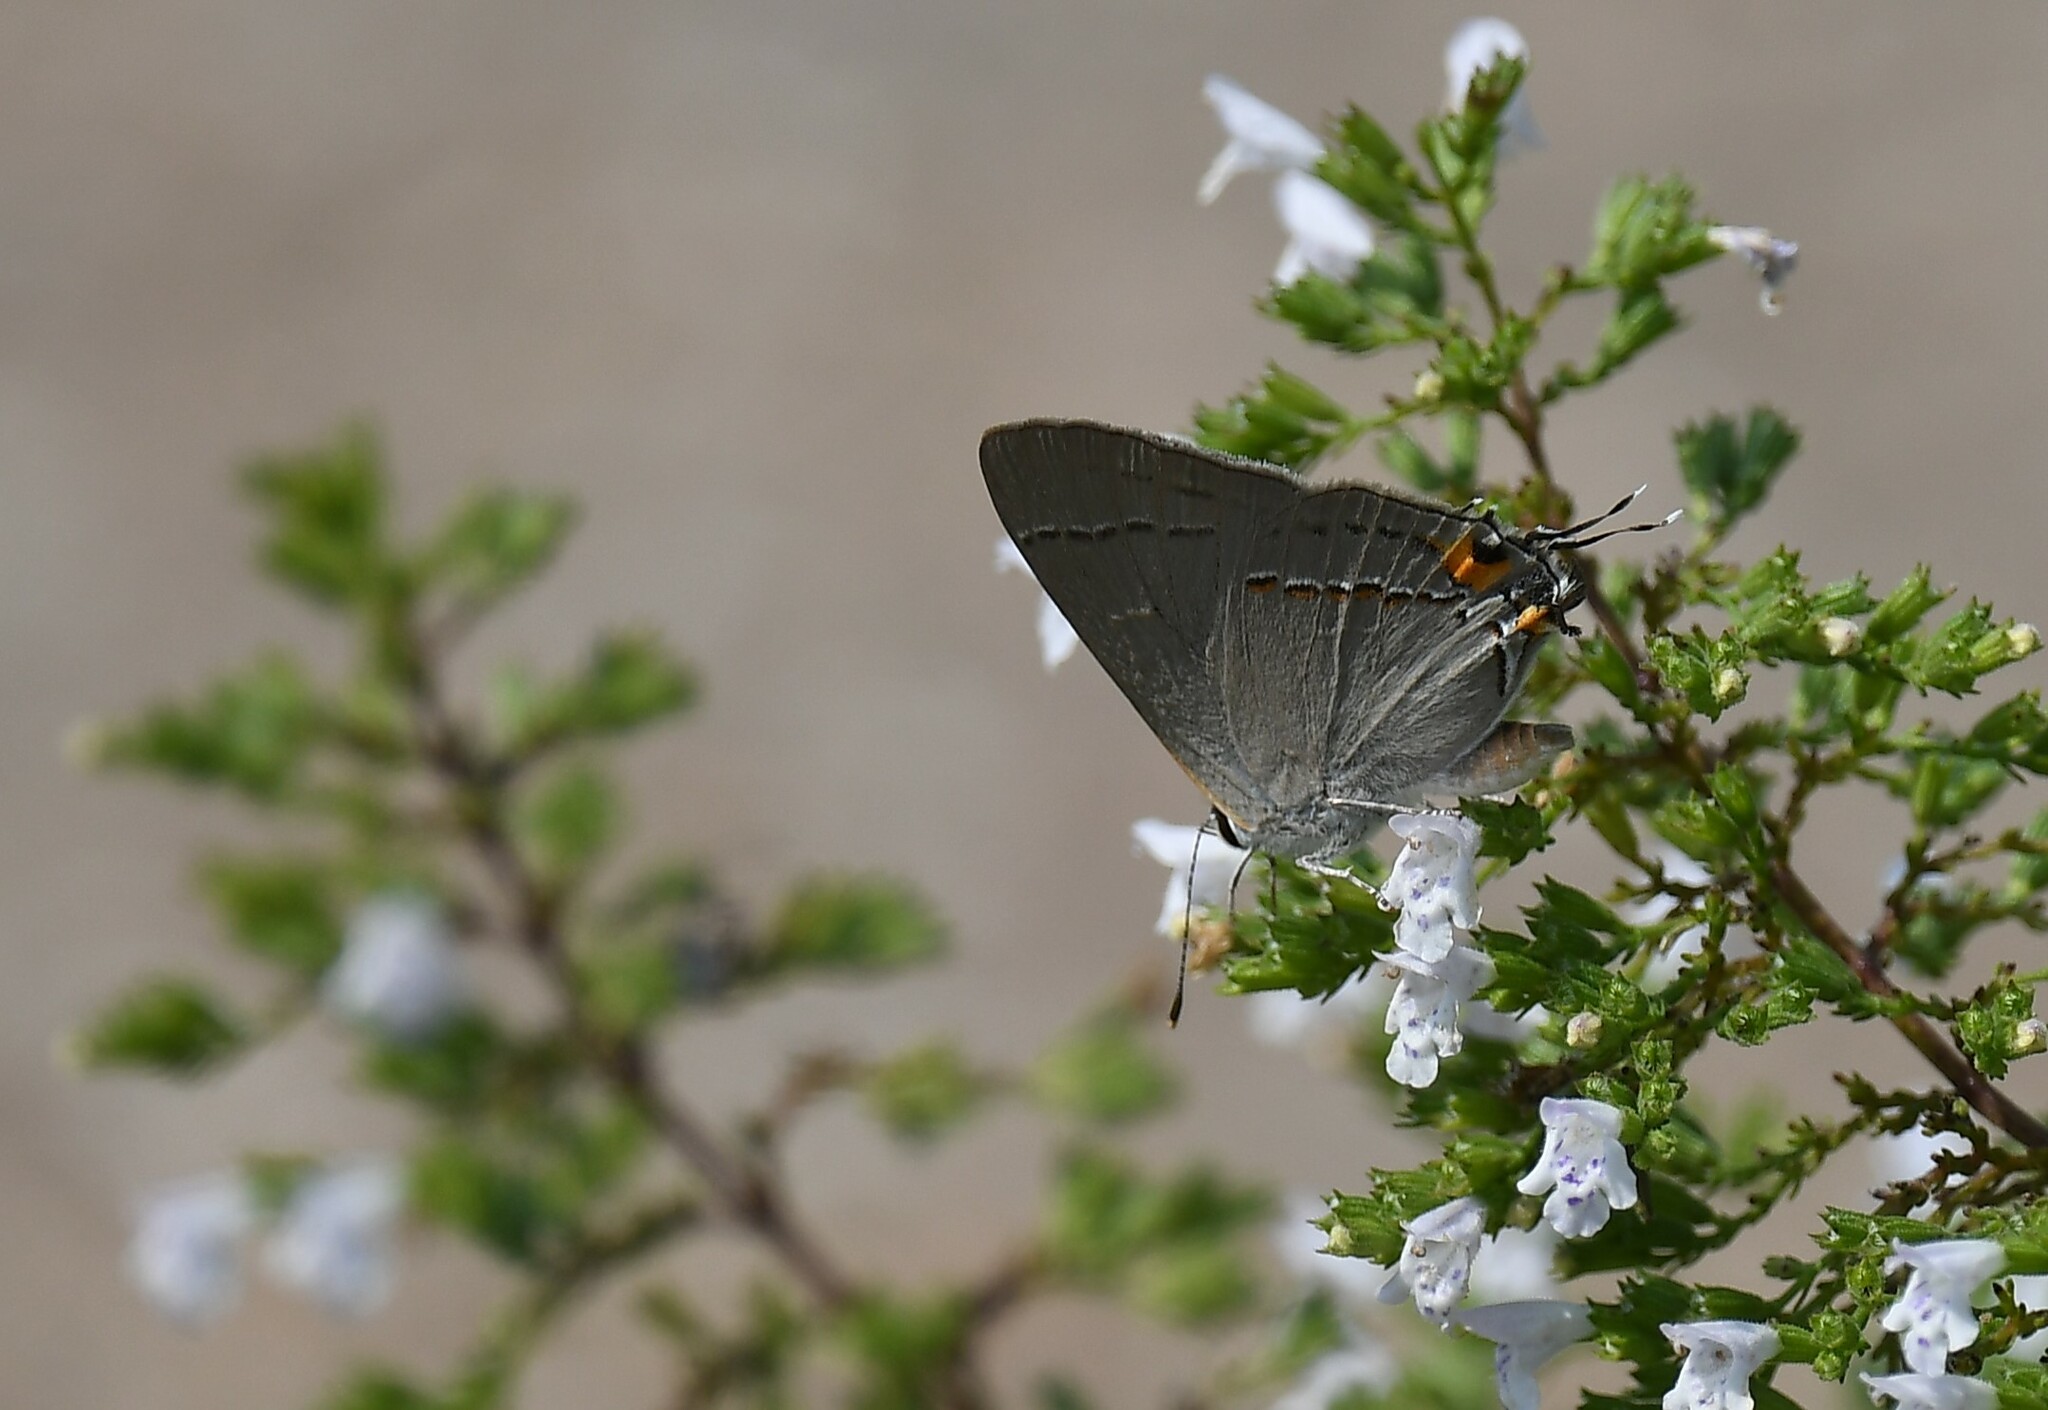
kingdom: Animalia
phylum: Arthropoda
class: Insecta
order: Lepidoptera
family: Lycaenidae
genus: Strymon
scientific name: Strymon melinus
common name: Gray hairstreak
